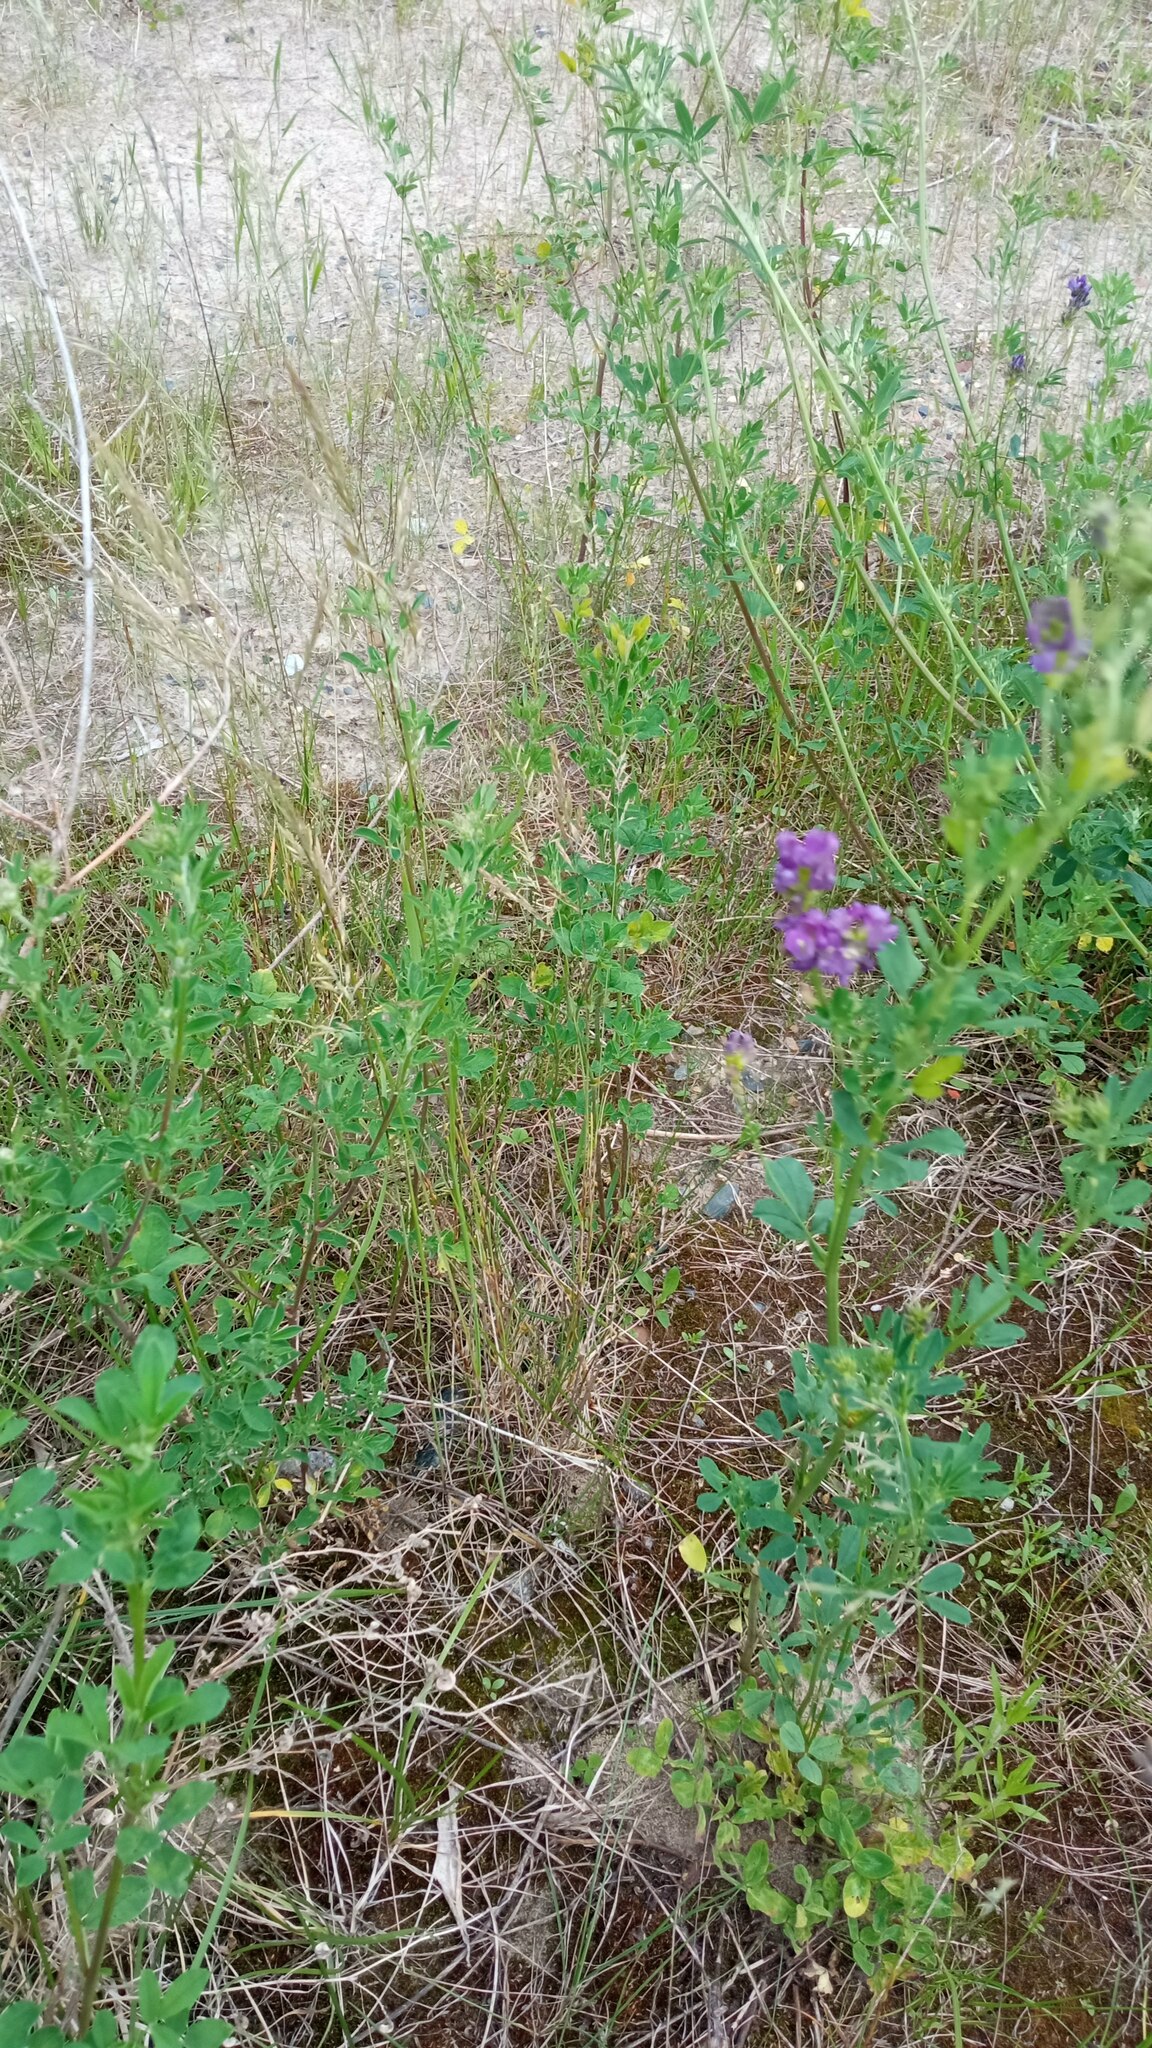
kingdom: Plantae
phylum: Tracheophyta
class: Magnoliopsida
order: Fabales
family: Fabaceae
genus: Medicago
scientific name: Medicago varia
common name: Sand lucerne
